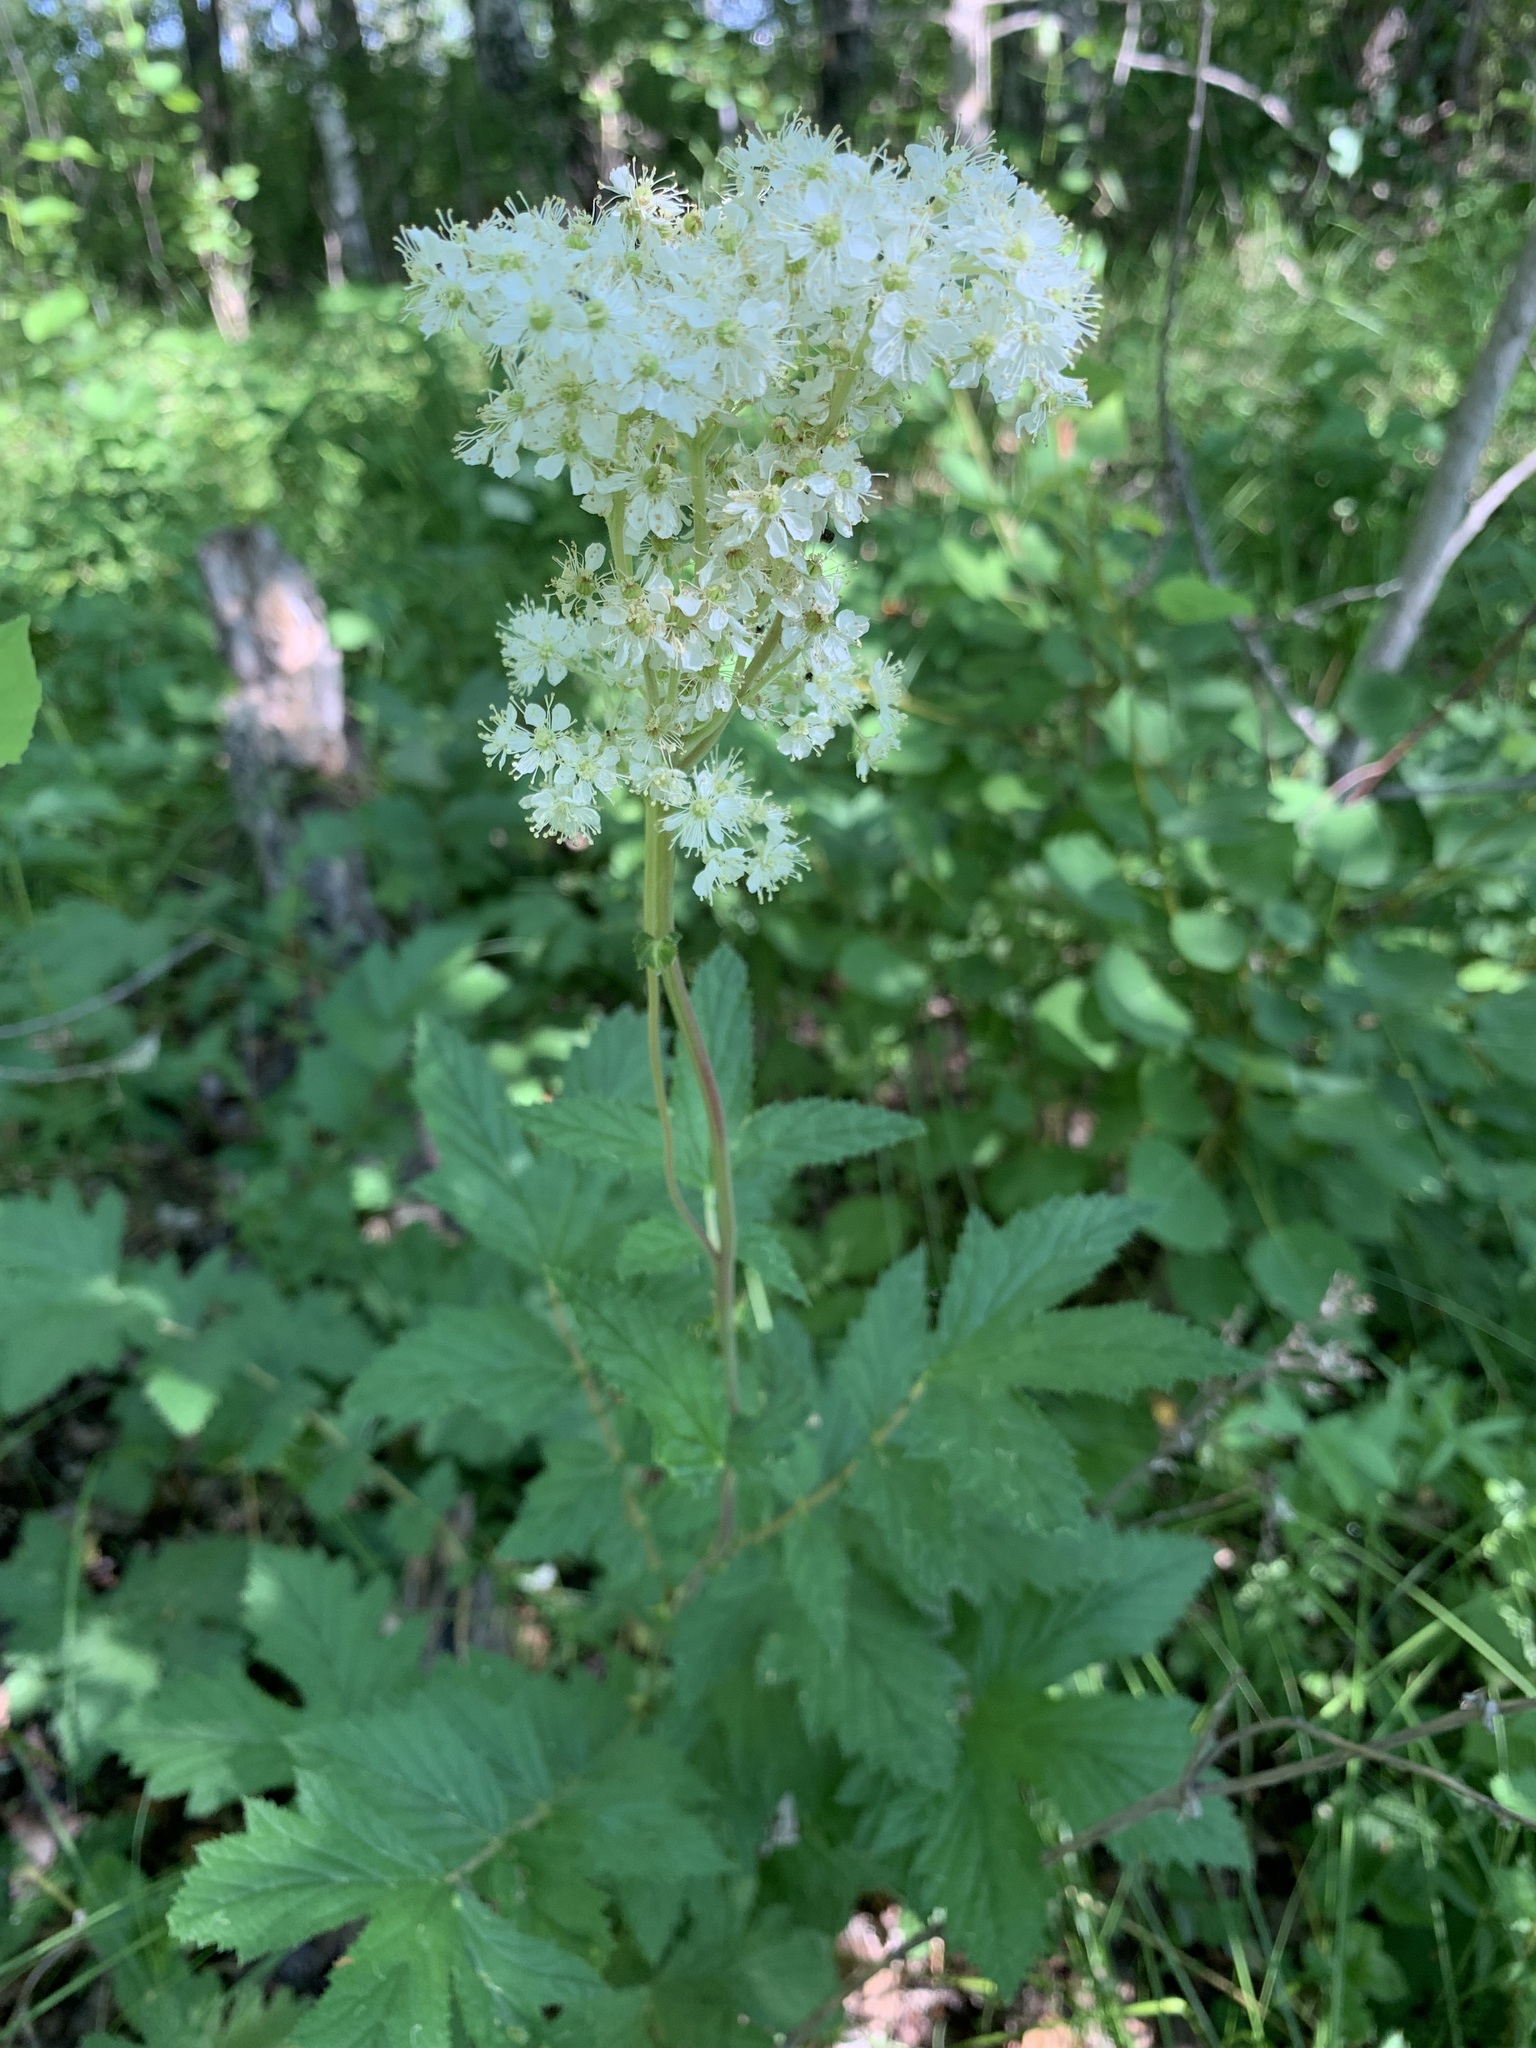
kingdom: Plantae
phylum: Tracheophyta
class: Magnoliopsida
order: Rosales
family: Rosaceae
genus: Filipendula
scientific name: Filipendula ulmaria
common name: Meadowsweet
